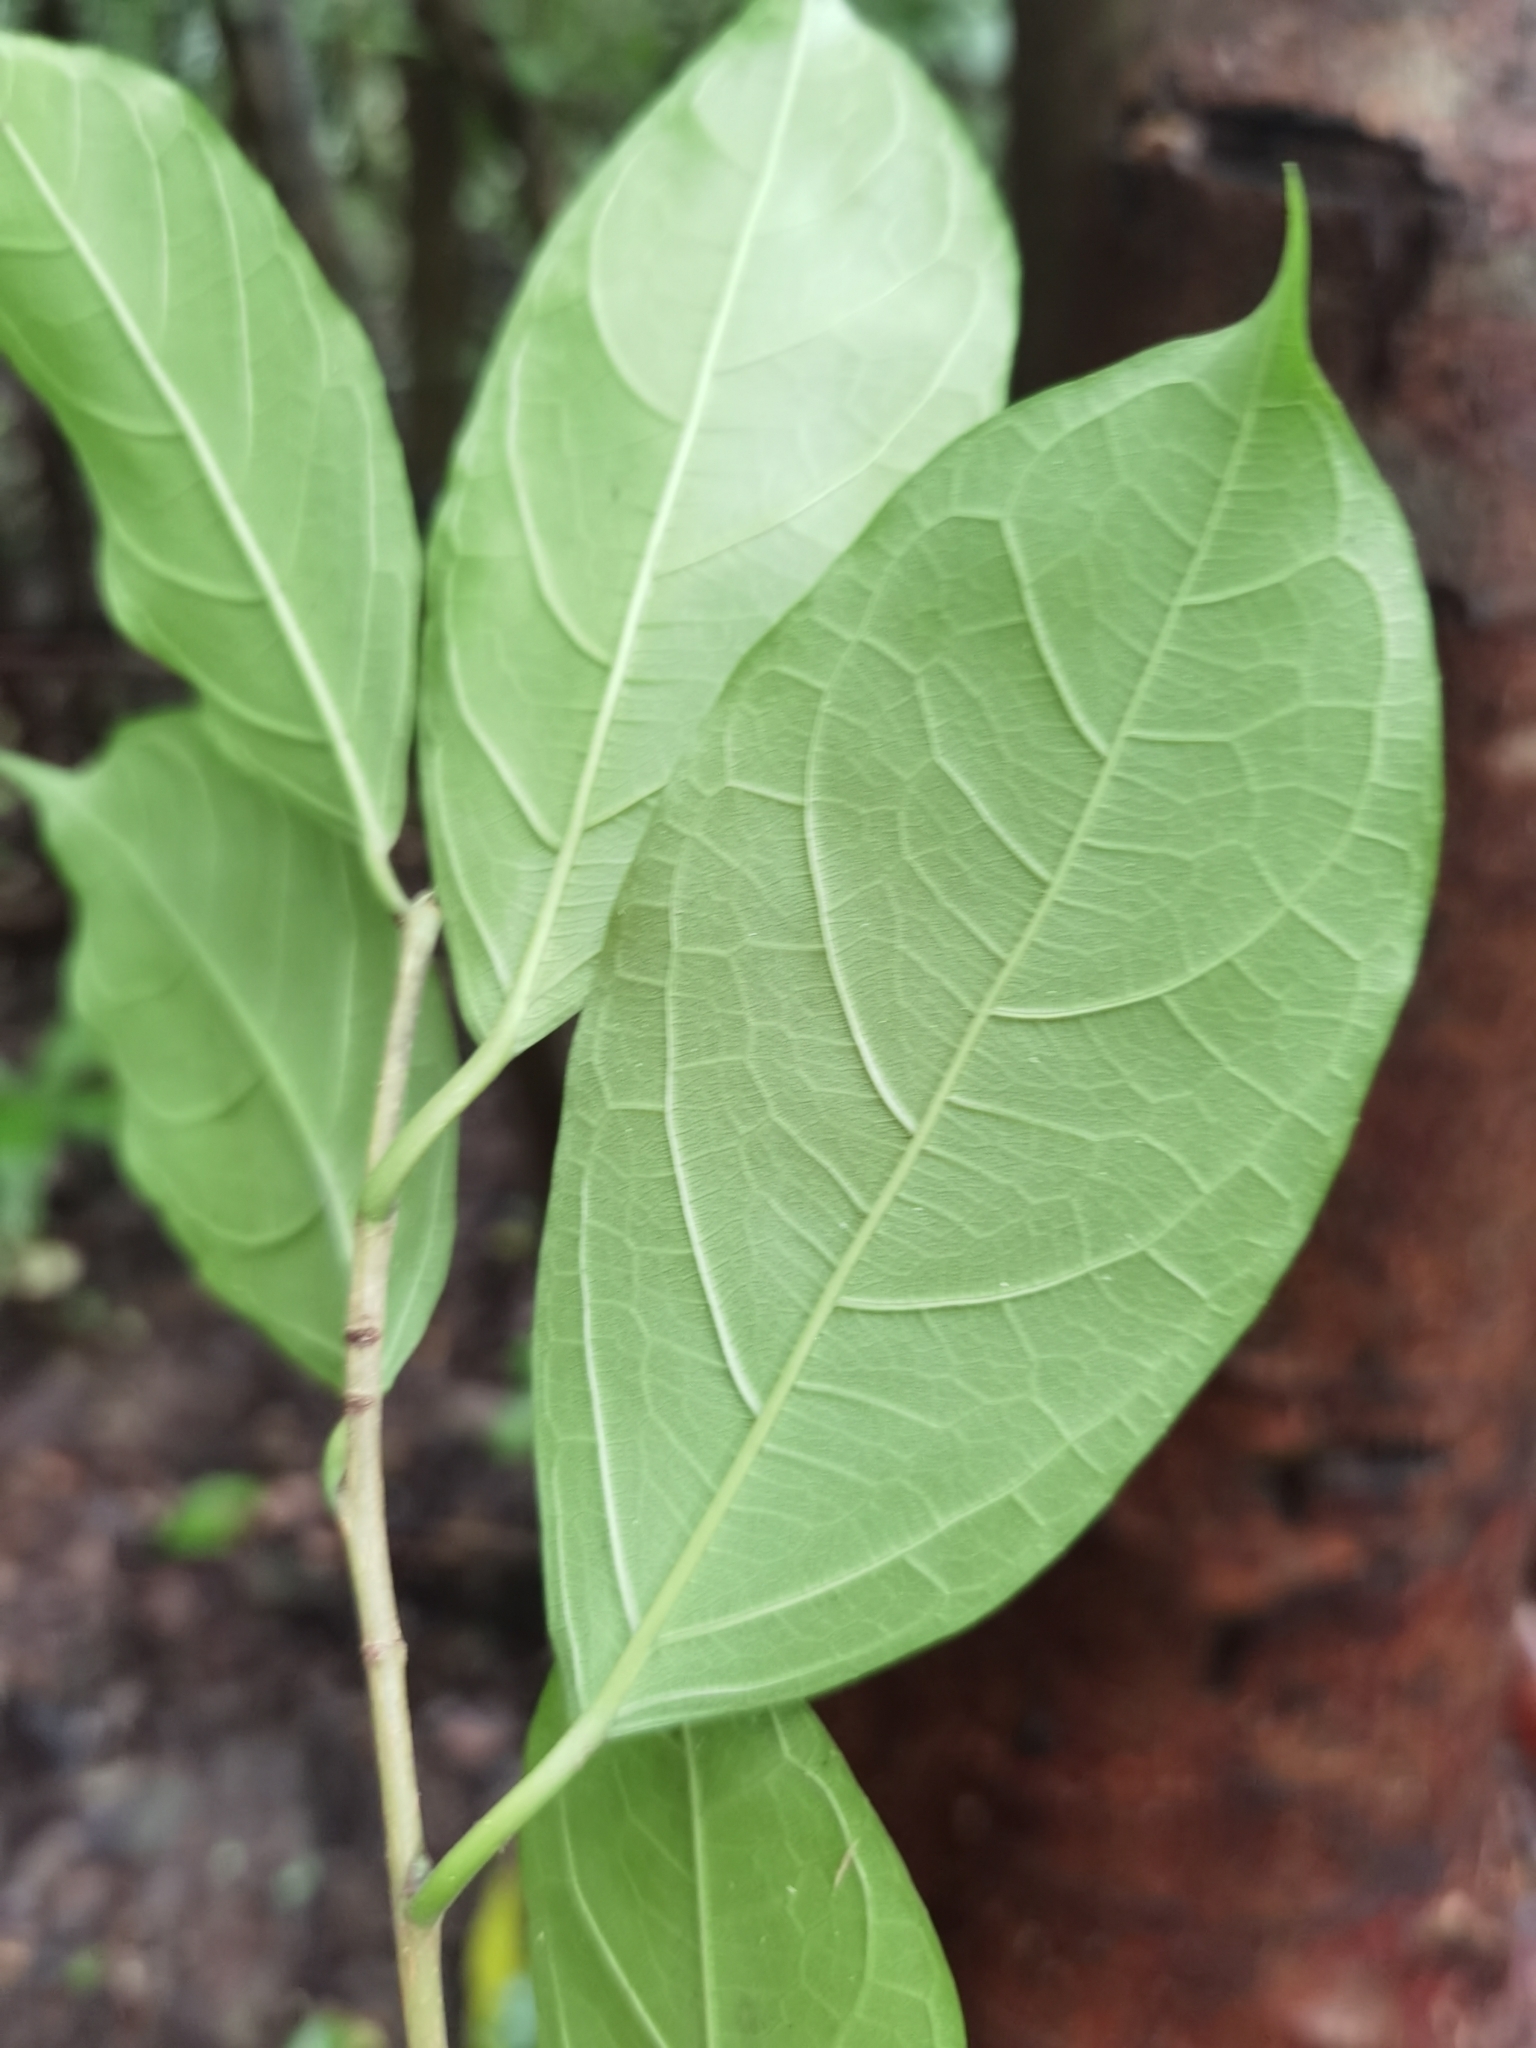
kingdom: Plantae
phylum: Tracheophyta
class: Magnoliopsida
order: Rosales
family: Moraceae
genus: Trophis
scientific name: Trophis racemosa
